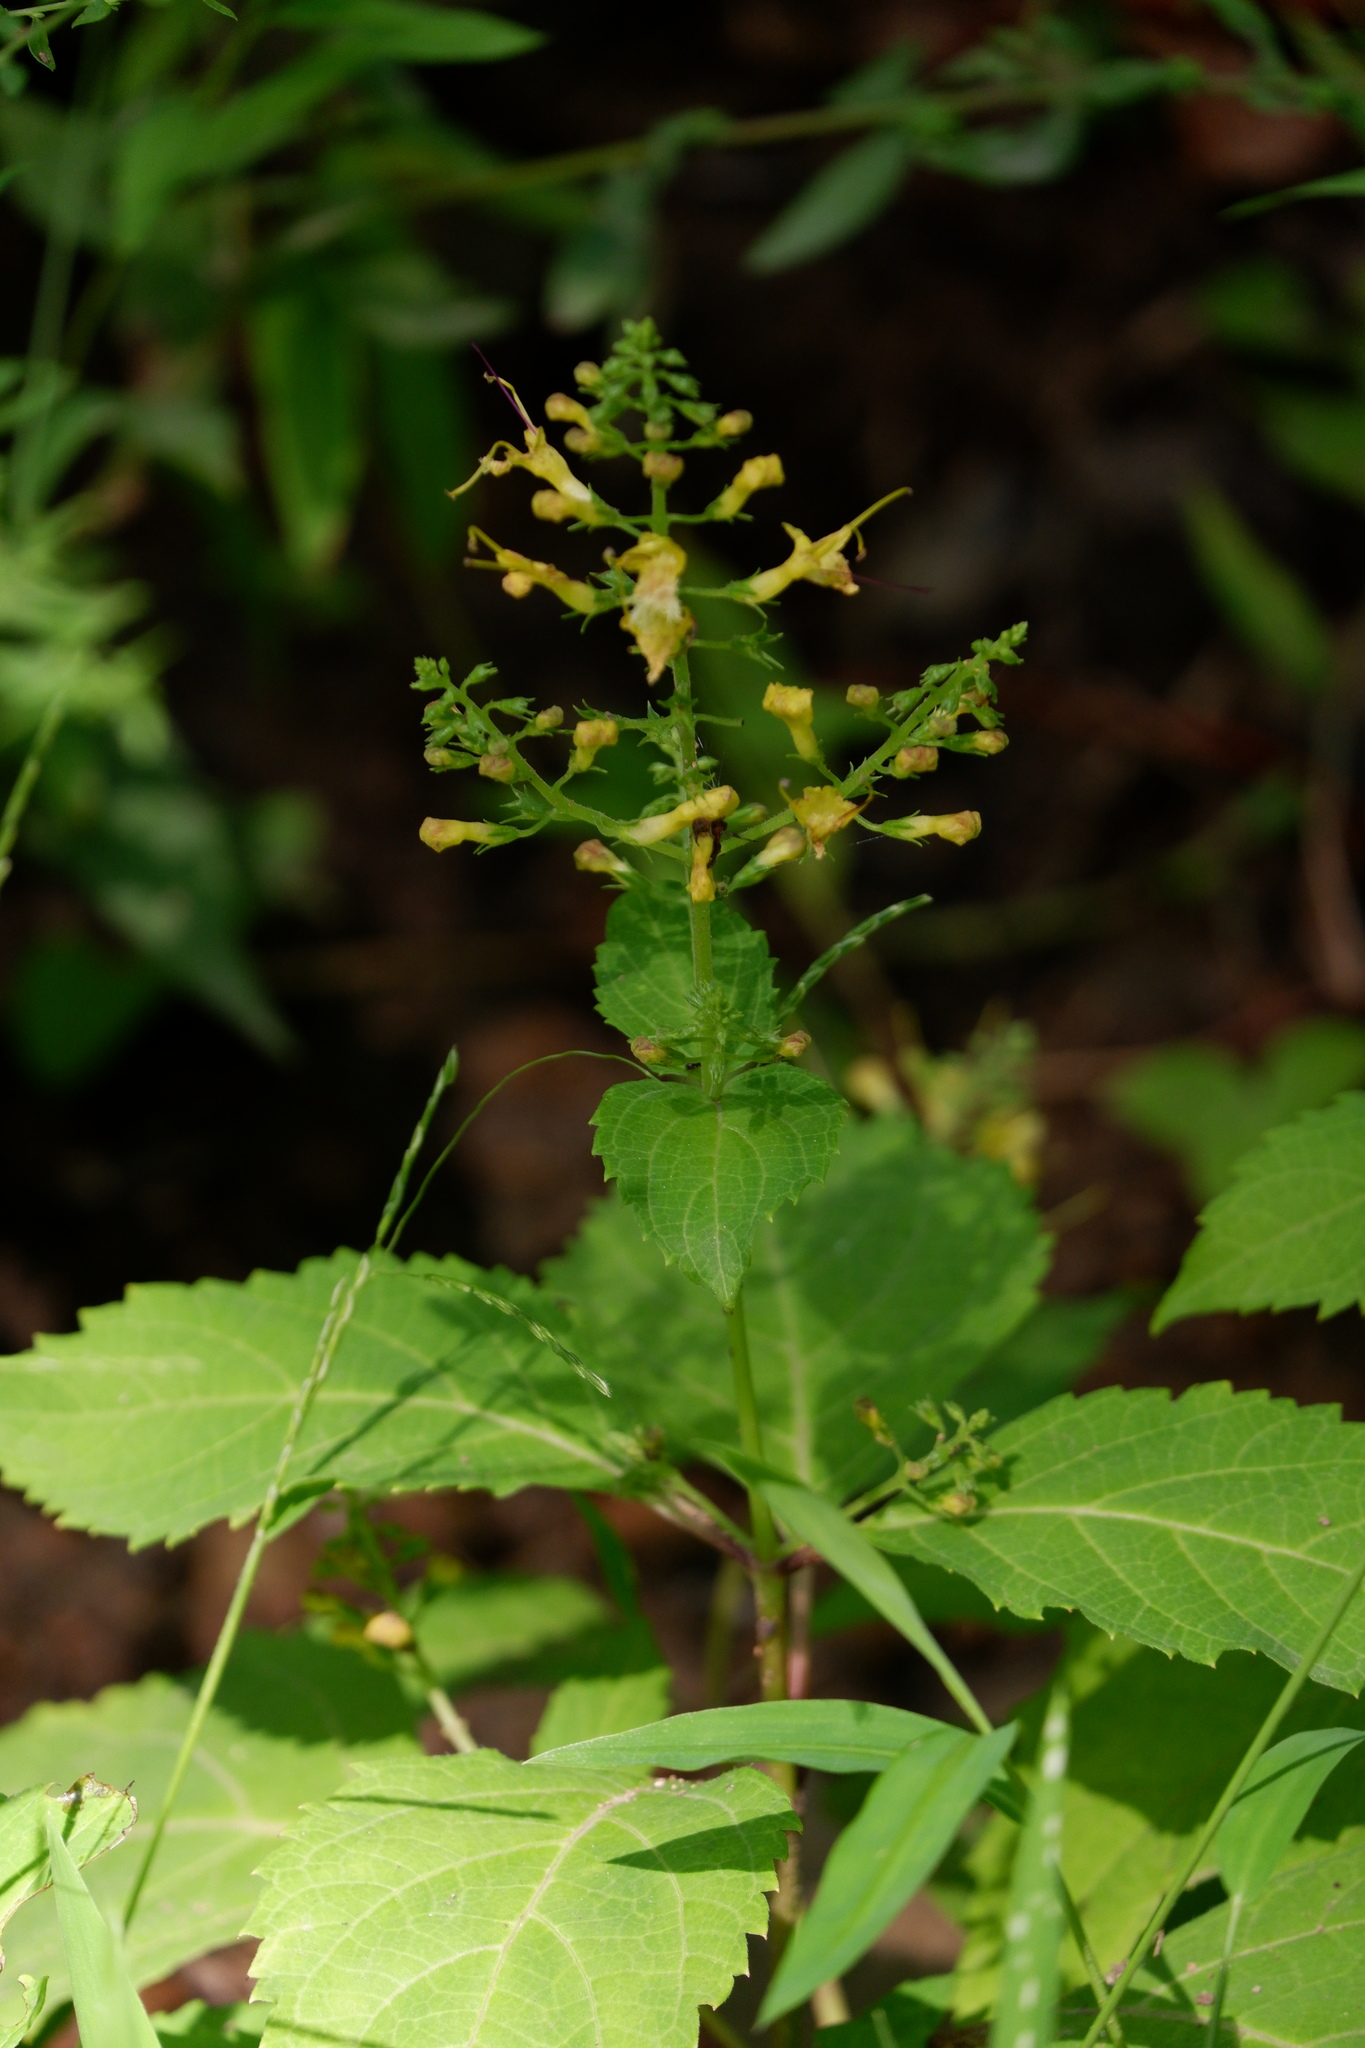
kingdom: Plantae
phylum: Tracheophyta
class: Magnoliopsida
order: Lamiales
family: Lamiaceae
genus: Collinsonia
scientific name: Collinsonia canadensis
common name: Northern horsebalm
